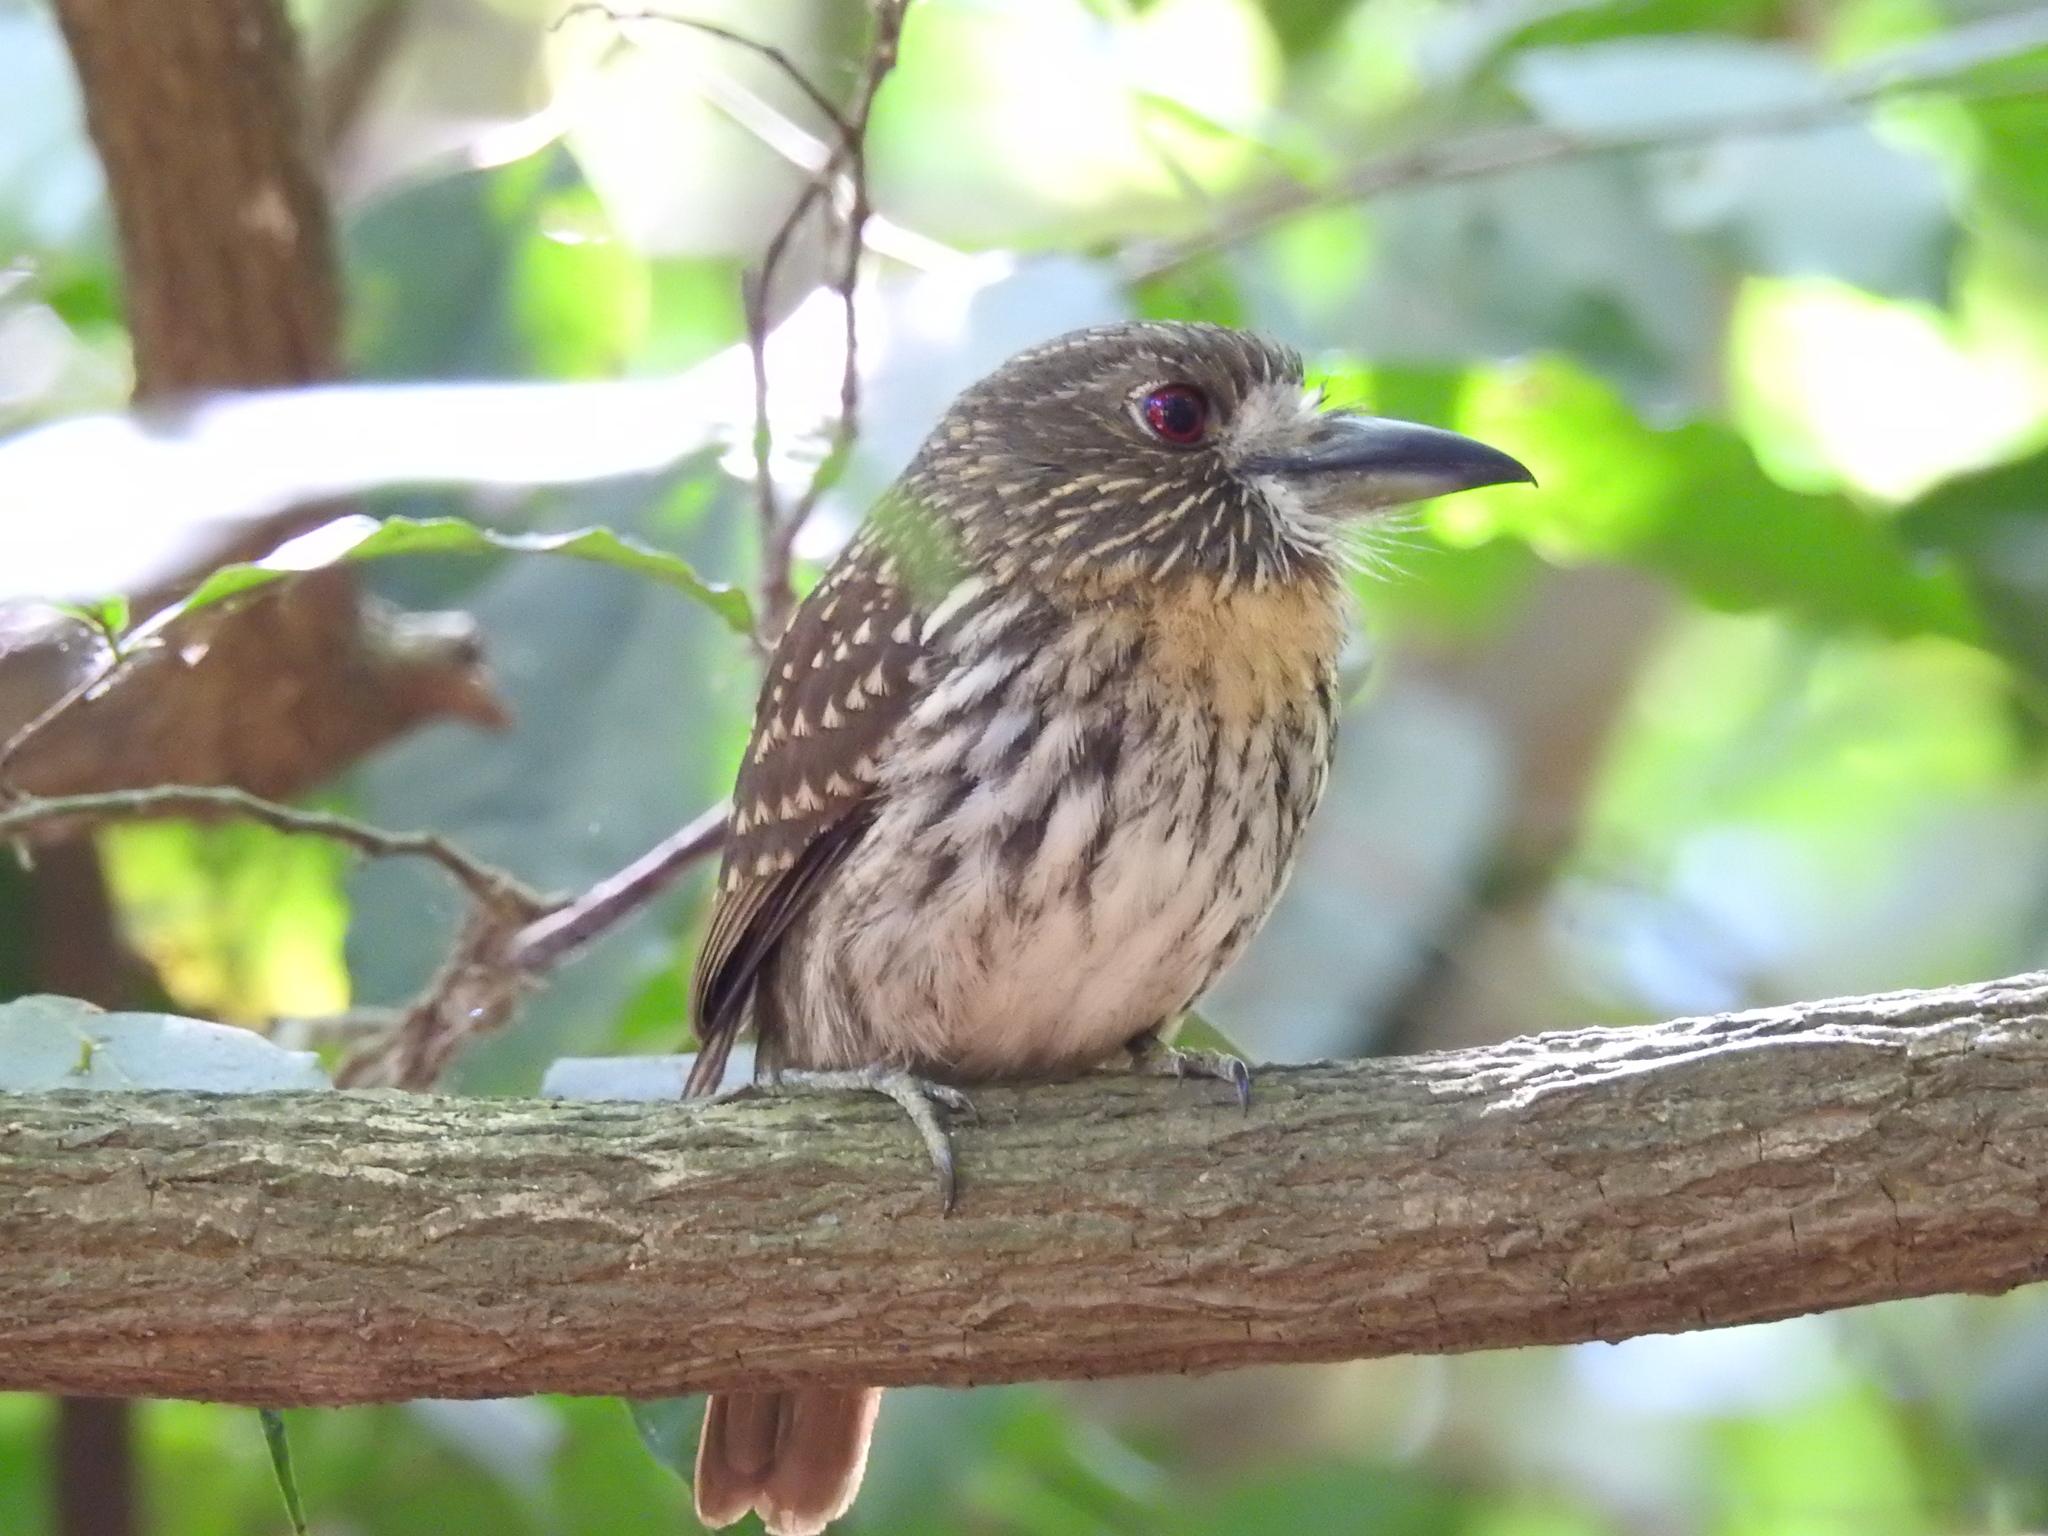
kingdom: Animalia
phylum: Chordata
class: Aves
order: Piciformes
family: Bucconidae
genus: Malacoptila
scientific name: Malacoptila panamensis
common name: White-whiskered puffbird
